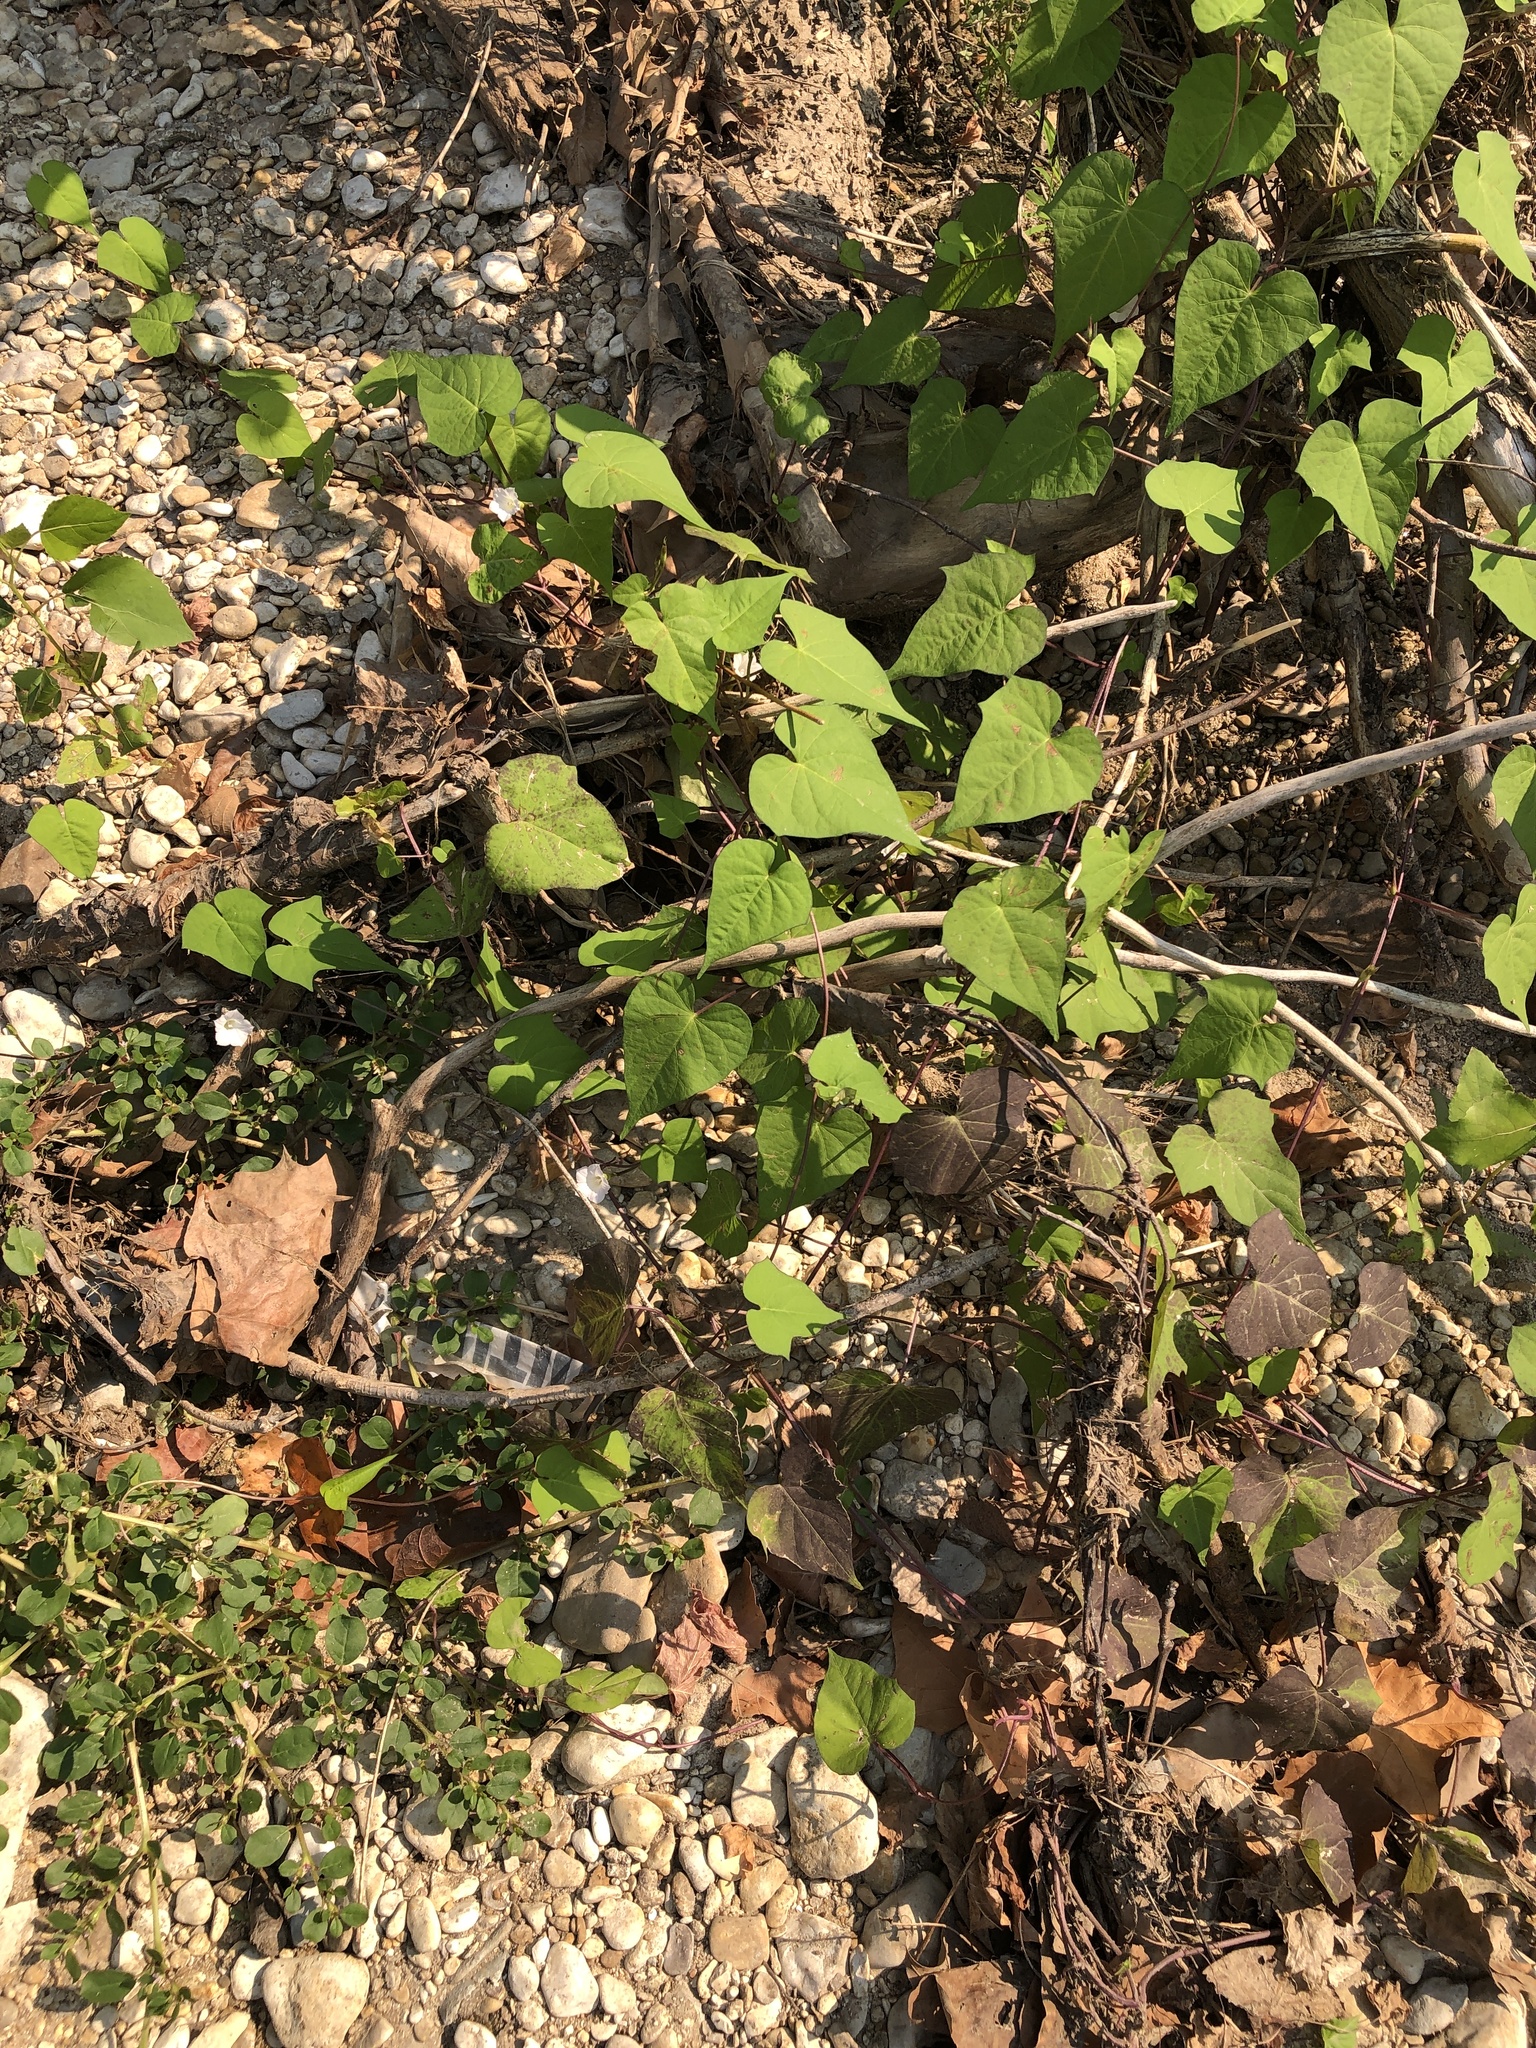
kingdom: Plantae
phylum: Tracheophyta
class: Magnoliopsida
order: Solanales
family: Convolvulaceae
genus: Ipomoea
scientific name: Ipomoea lacunosa
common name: White morning-glory
